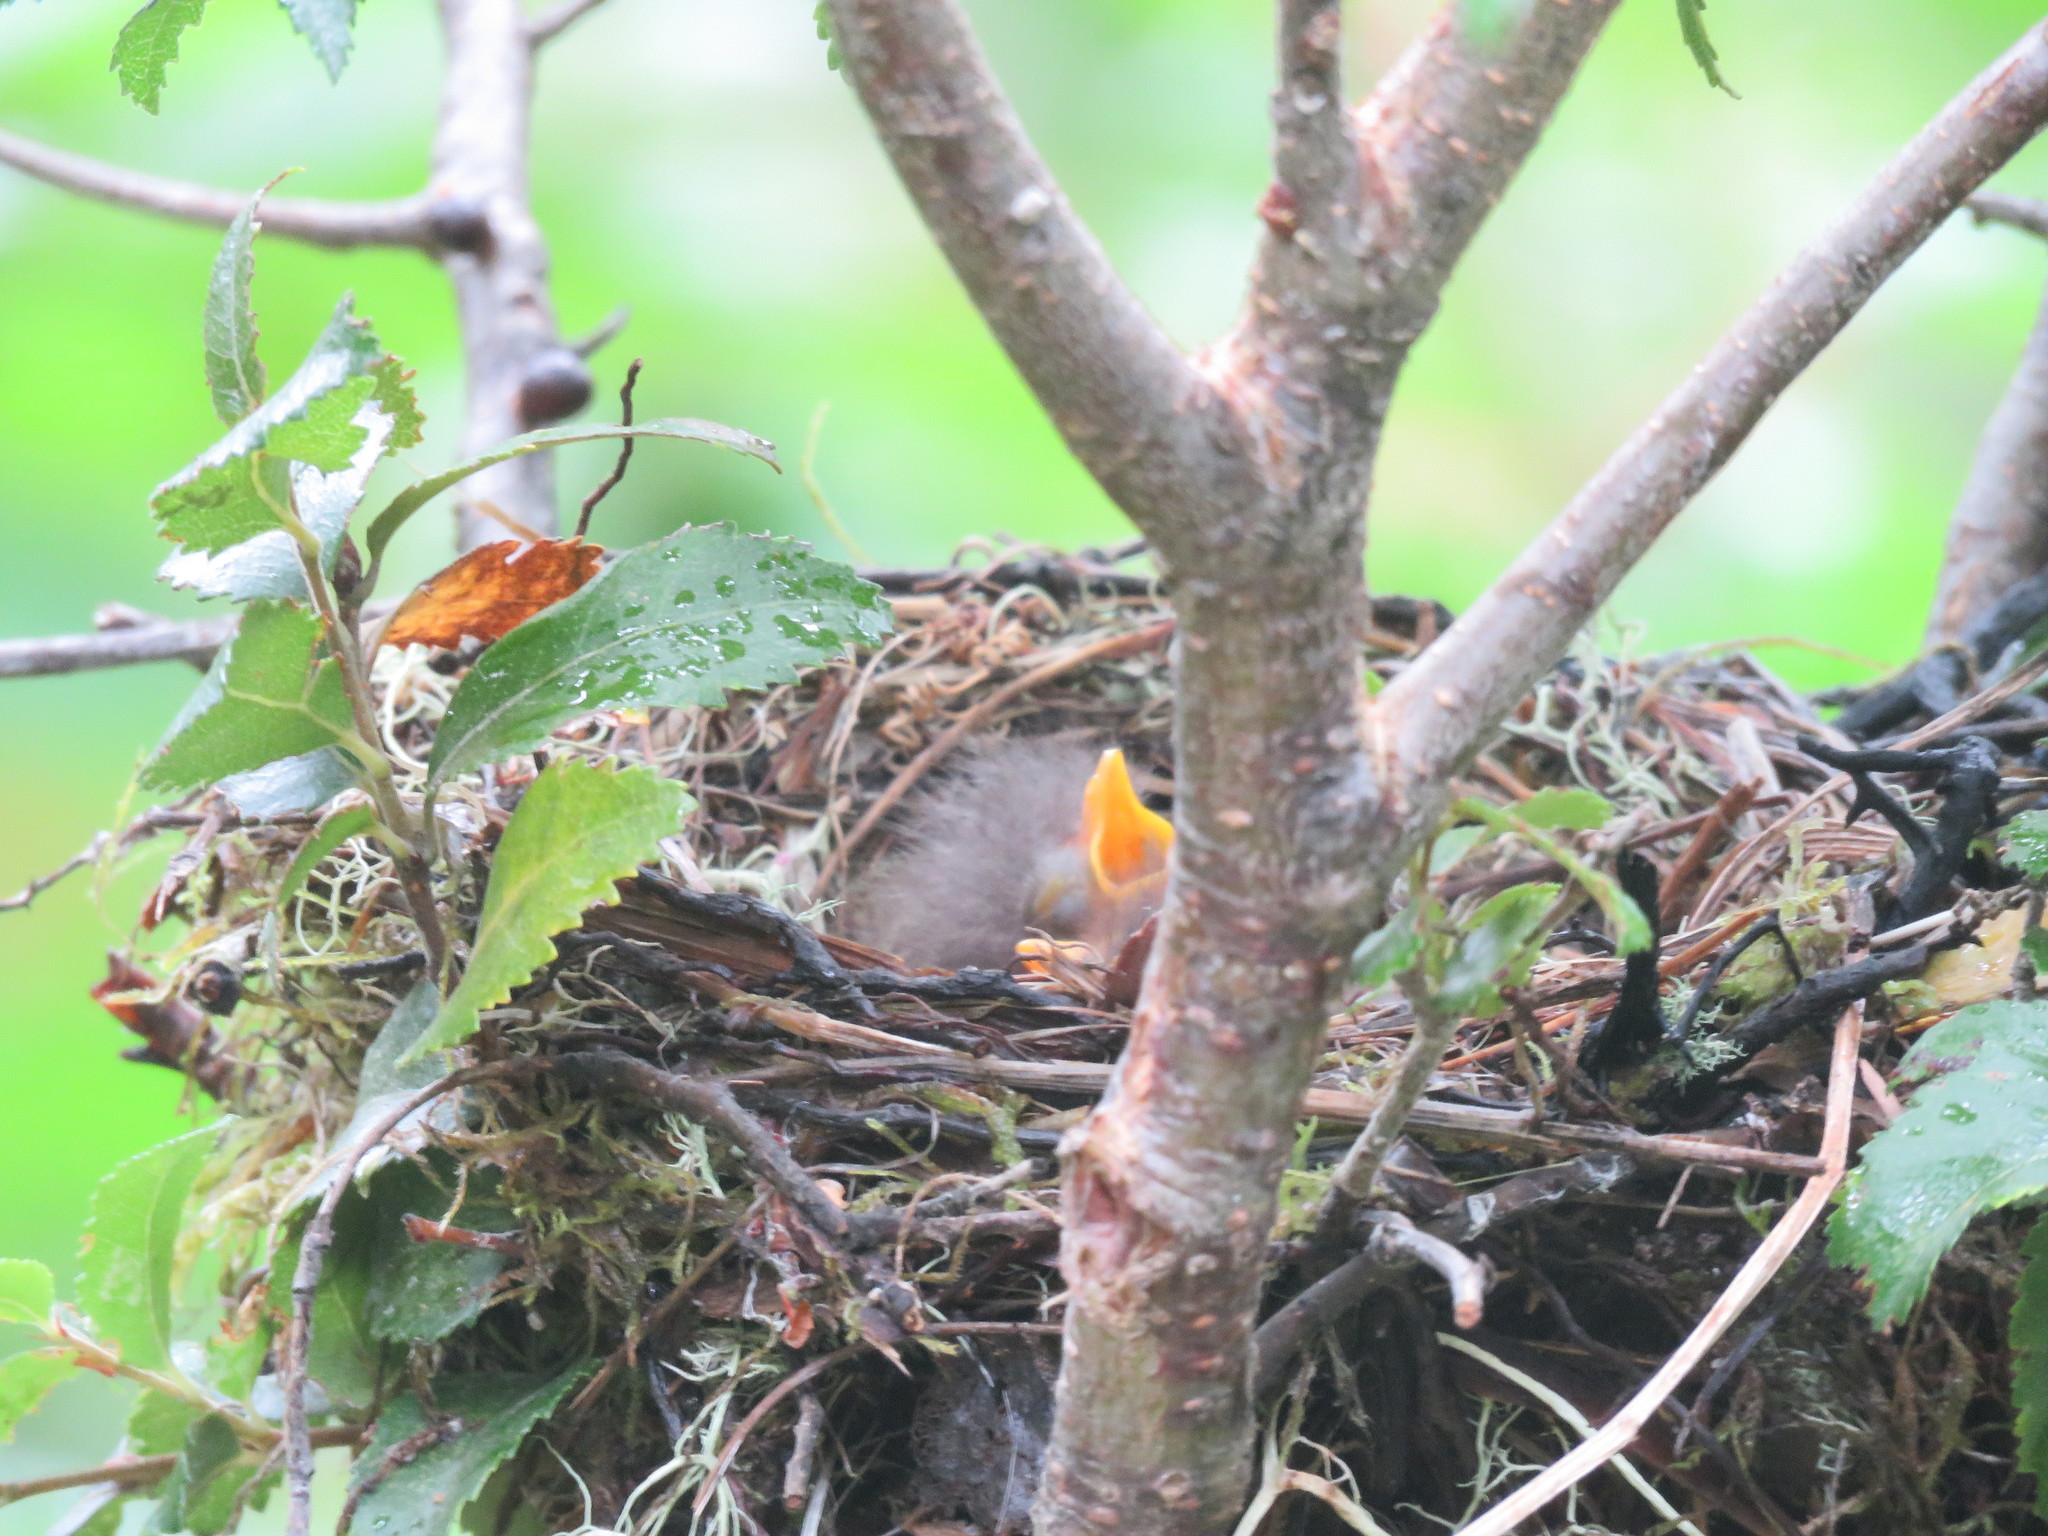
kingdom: Animalia
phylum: Chordata
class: Aves
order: Passeriformes
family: Tyrannidae
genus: Elaenia
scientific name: Elaenia albiceps
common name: White-crested elaenia
